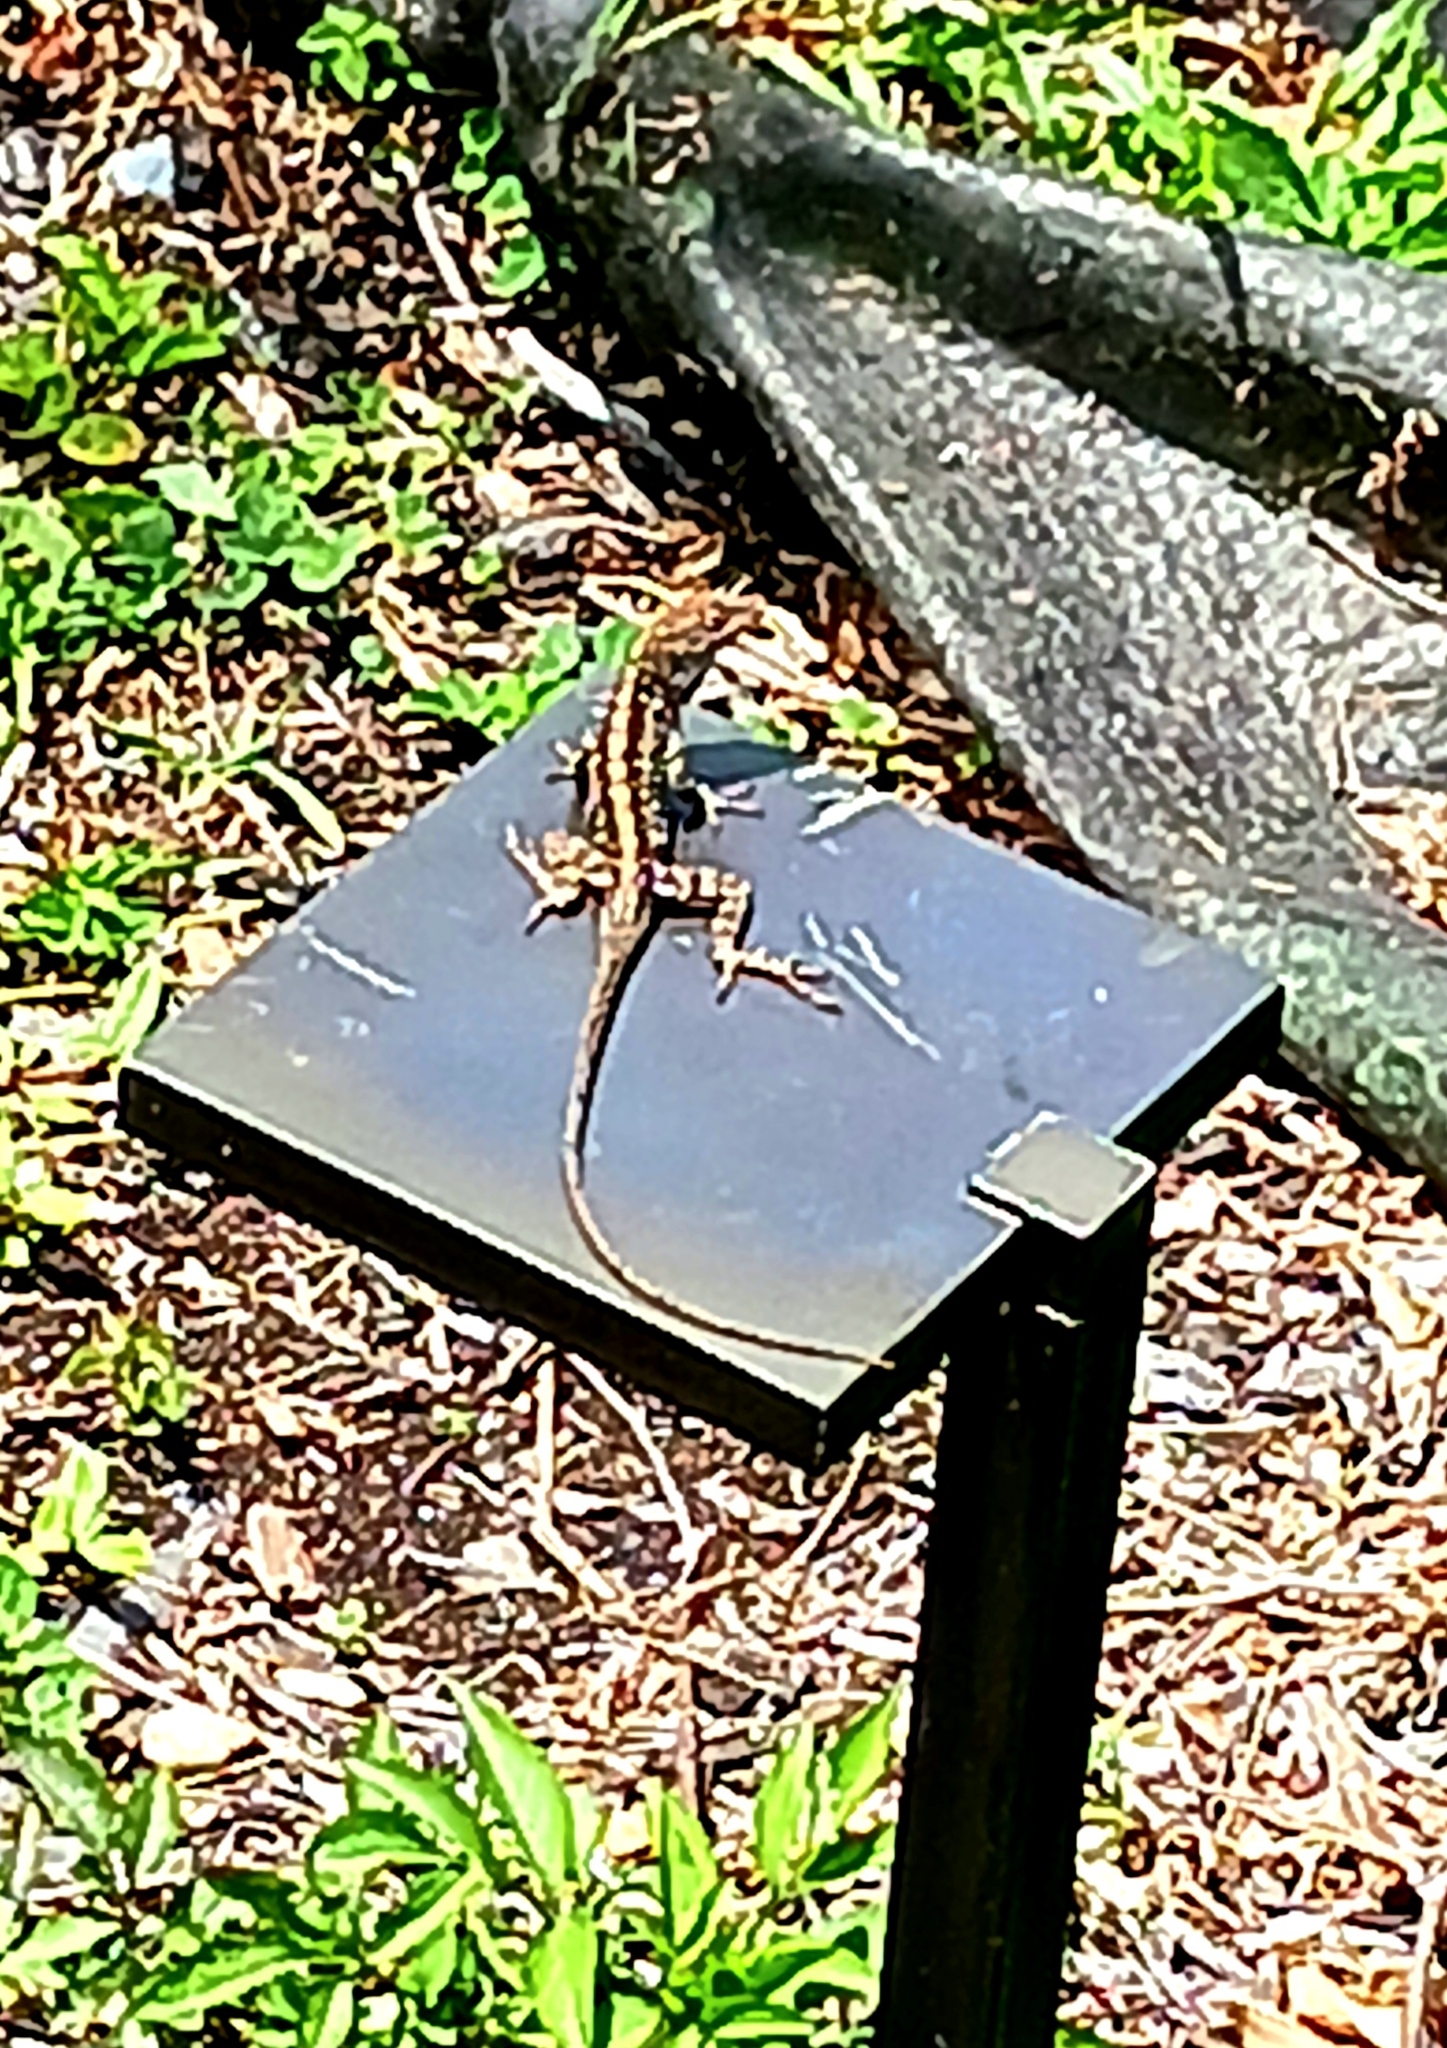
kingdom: Animalia
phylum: Chordata
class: Squamata
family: Dactyloidae
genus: Anolis
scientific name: Anolis sagrei
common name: Brown anole
